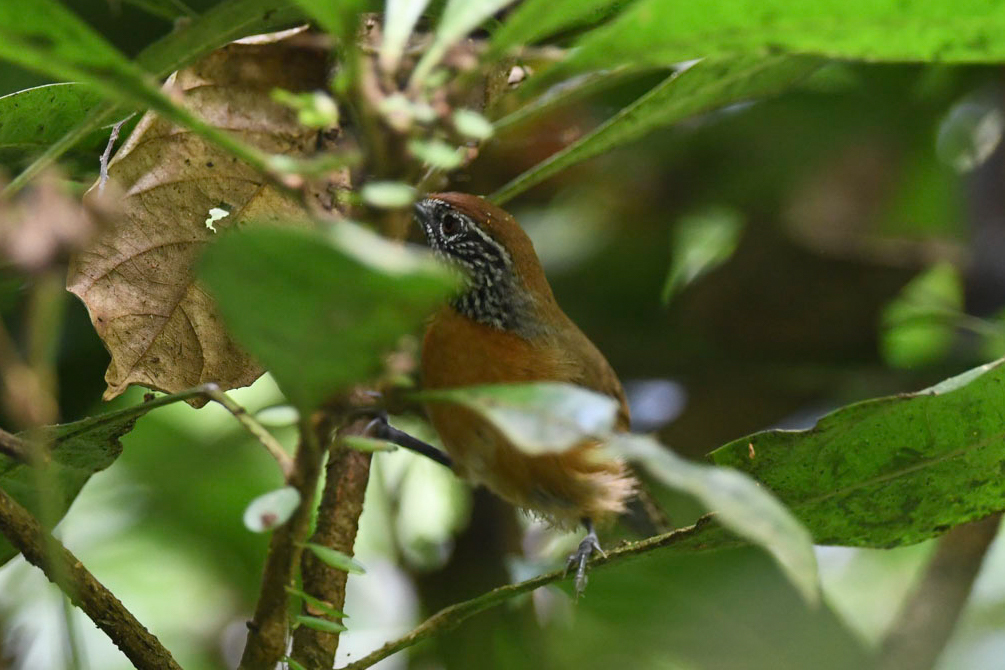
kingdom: Animalia
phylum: Chordata
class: Aves
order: Passeriformes
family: Troglodytidae
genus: Pheugopedius
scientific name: Pheugopedius rutilus
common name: Rufous-breasted wren
